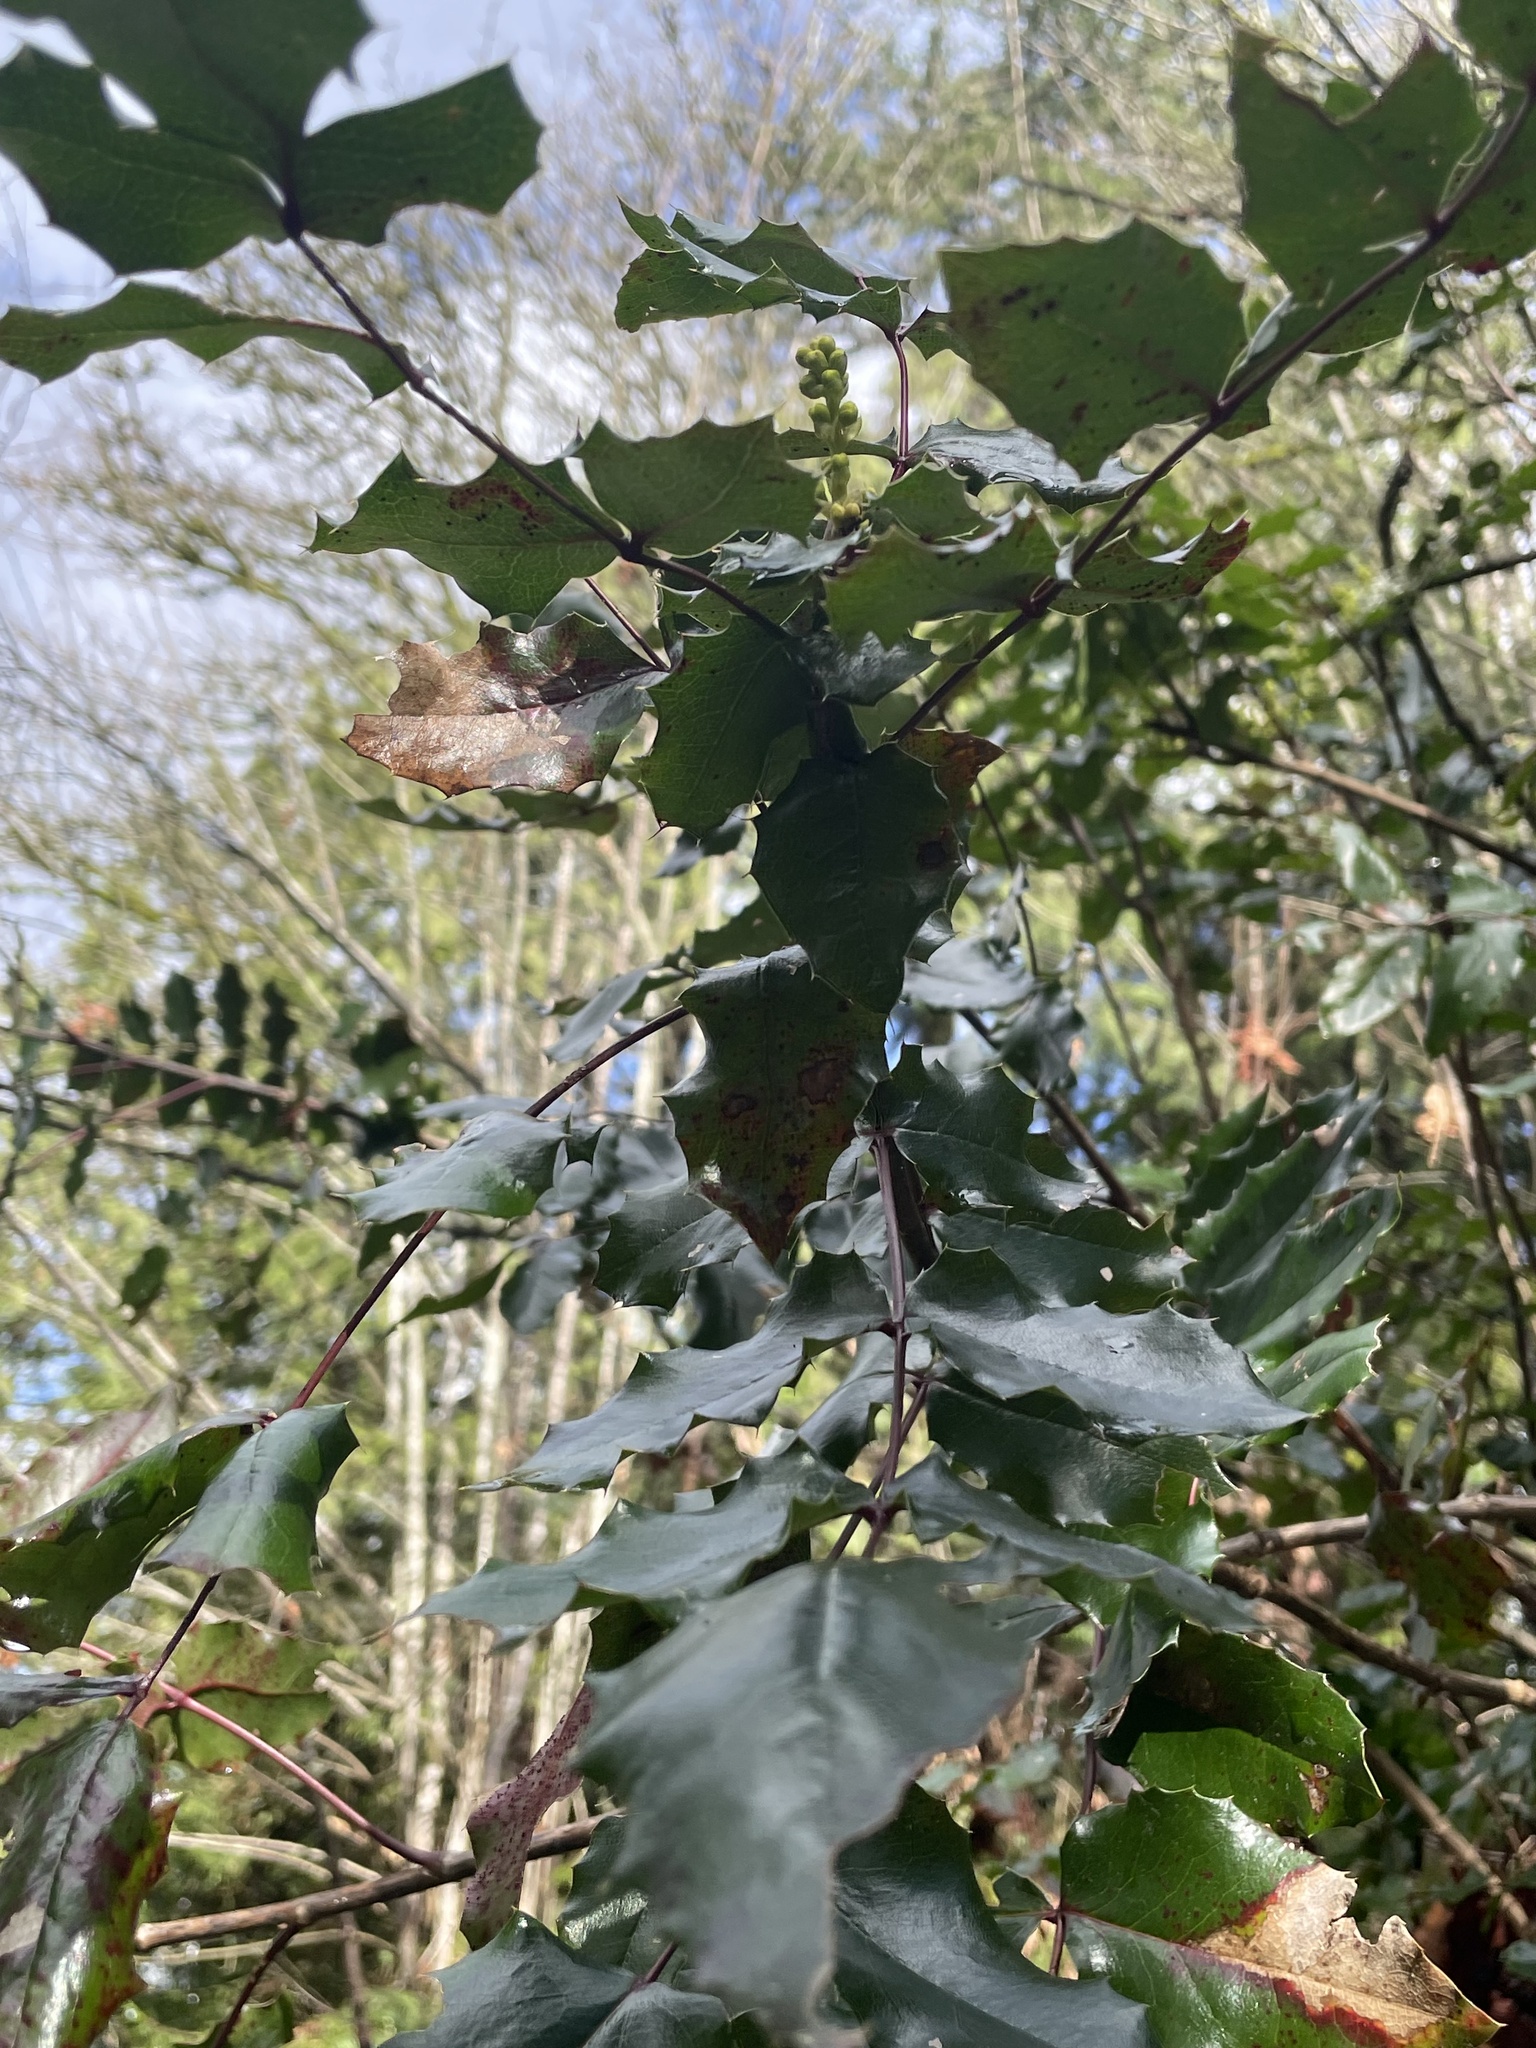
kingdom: Plantae
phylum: Tracheophyta
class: Magnoliopsida
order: Ranunculales
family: Berberidaceae
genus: Mahonia
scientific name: Mahonia aquifolium
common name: Oregon-grape
